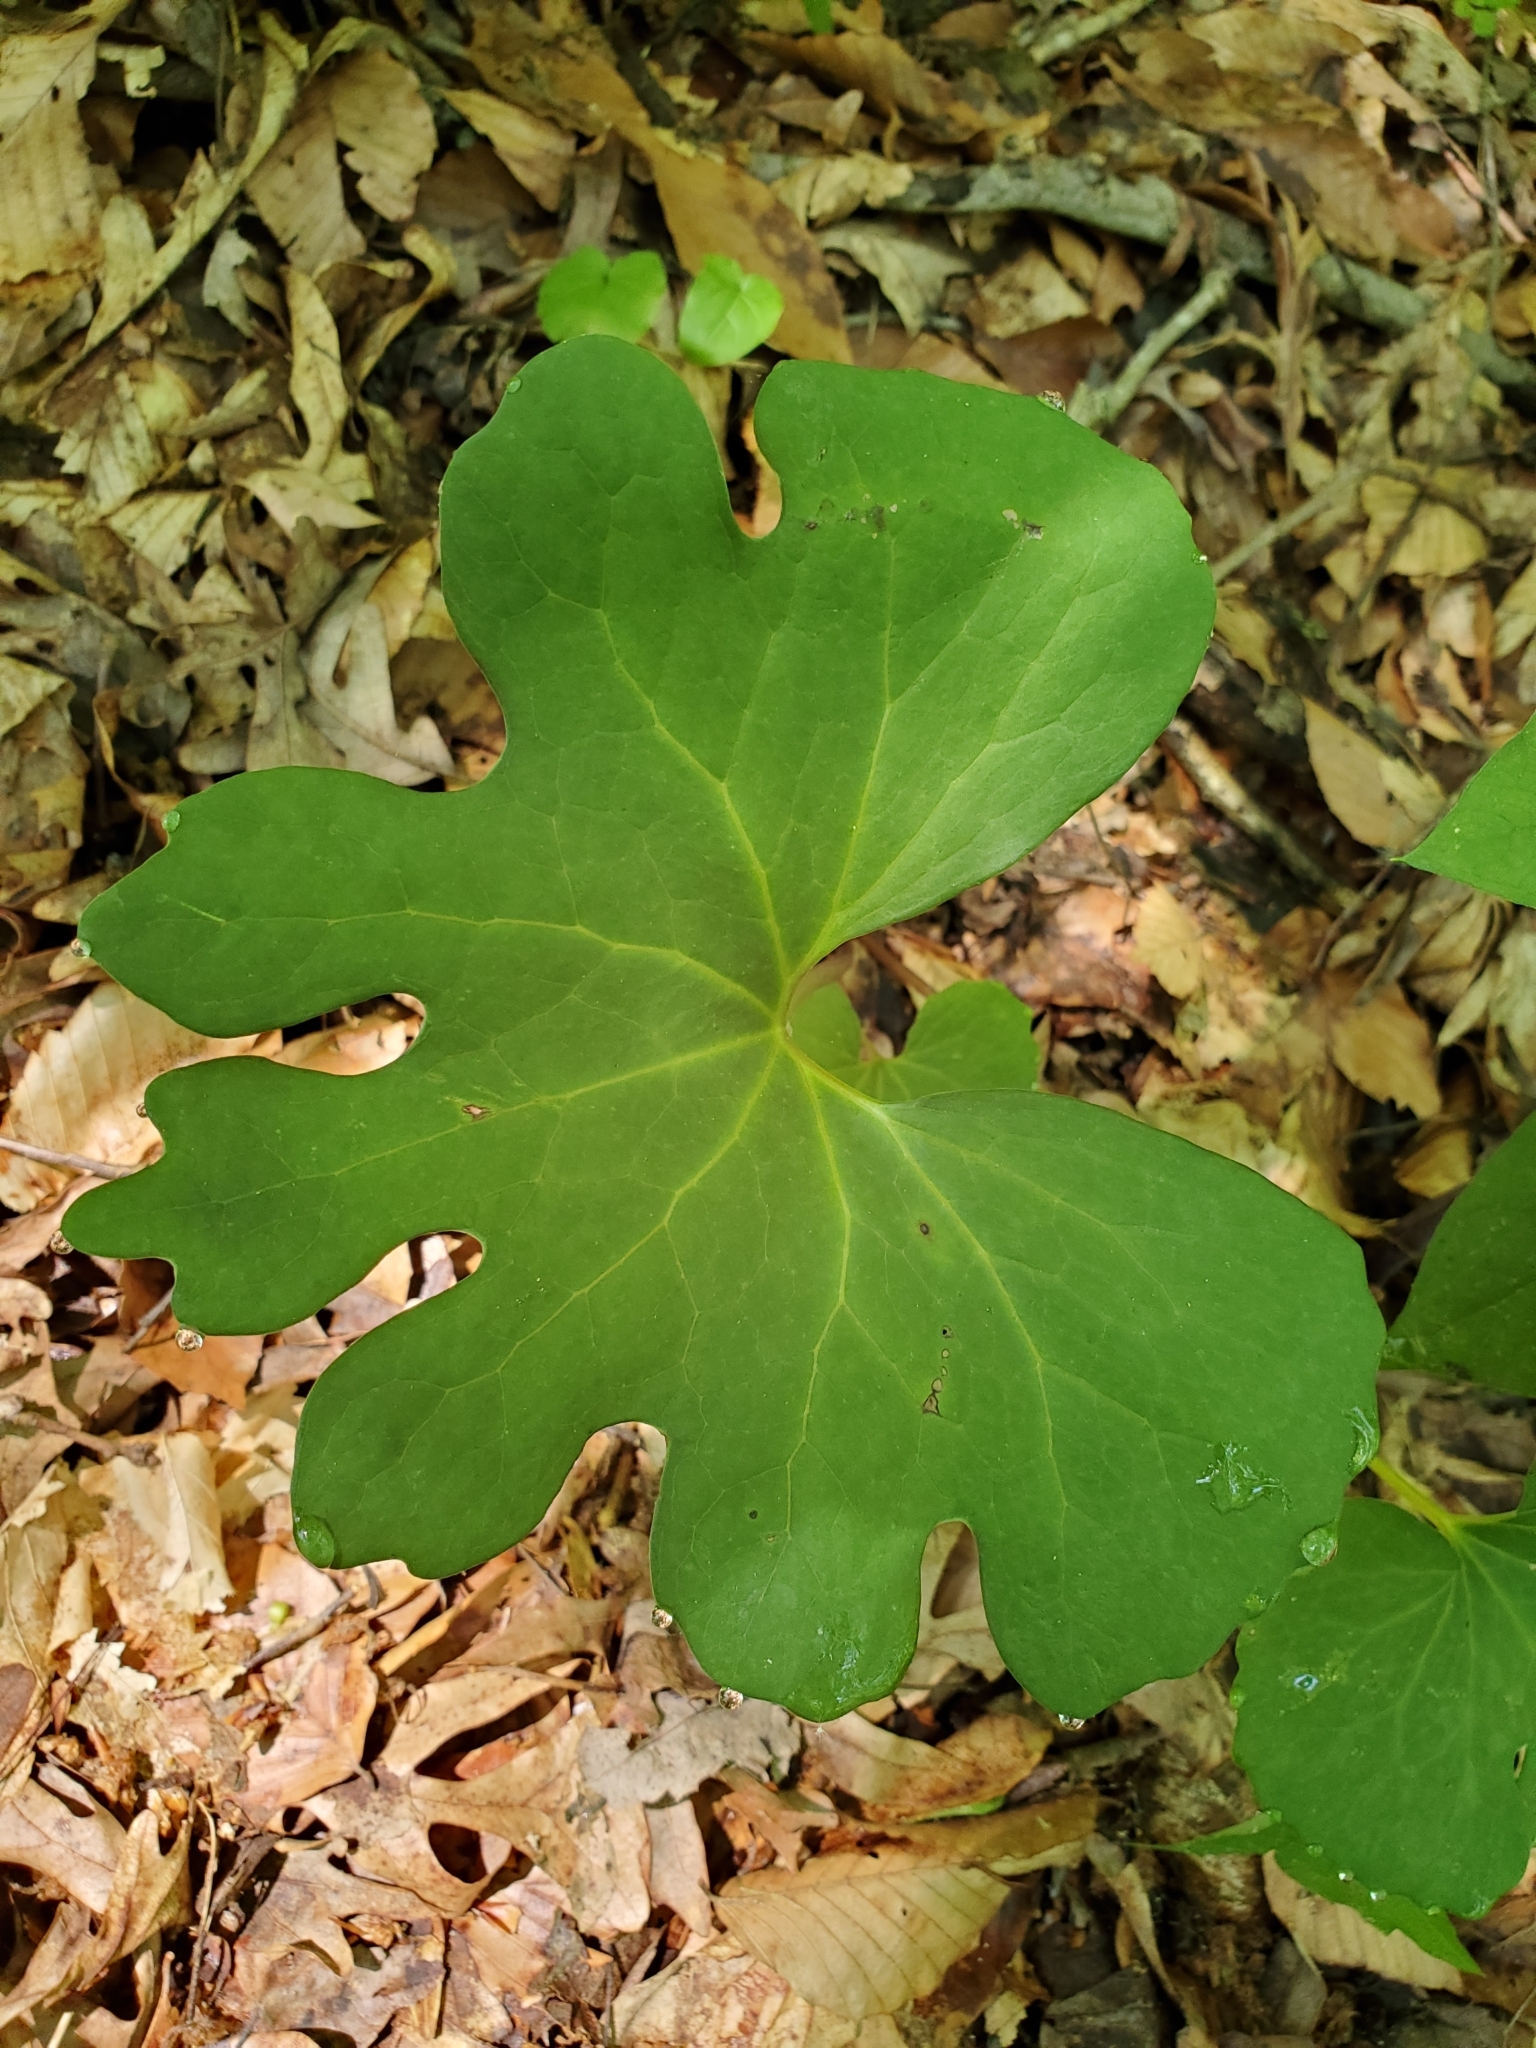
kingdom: Plantae
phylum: Tracheophyta
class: Magnoliopsida
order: Ranunculales
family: Papaveraceae
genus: Sanguinaria
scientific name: Sanguinaria canadensis
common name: Bloodroot
